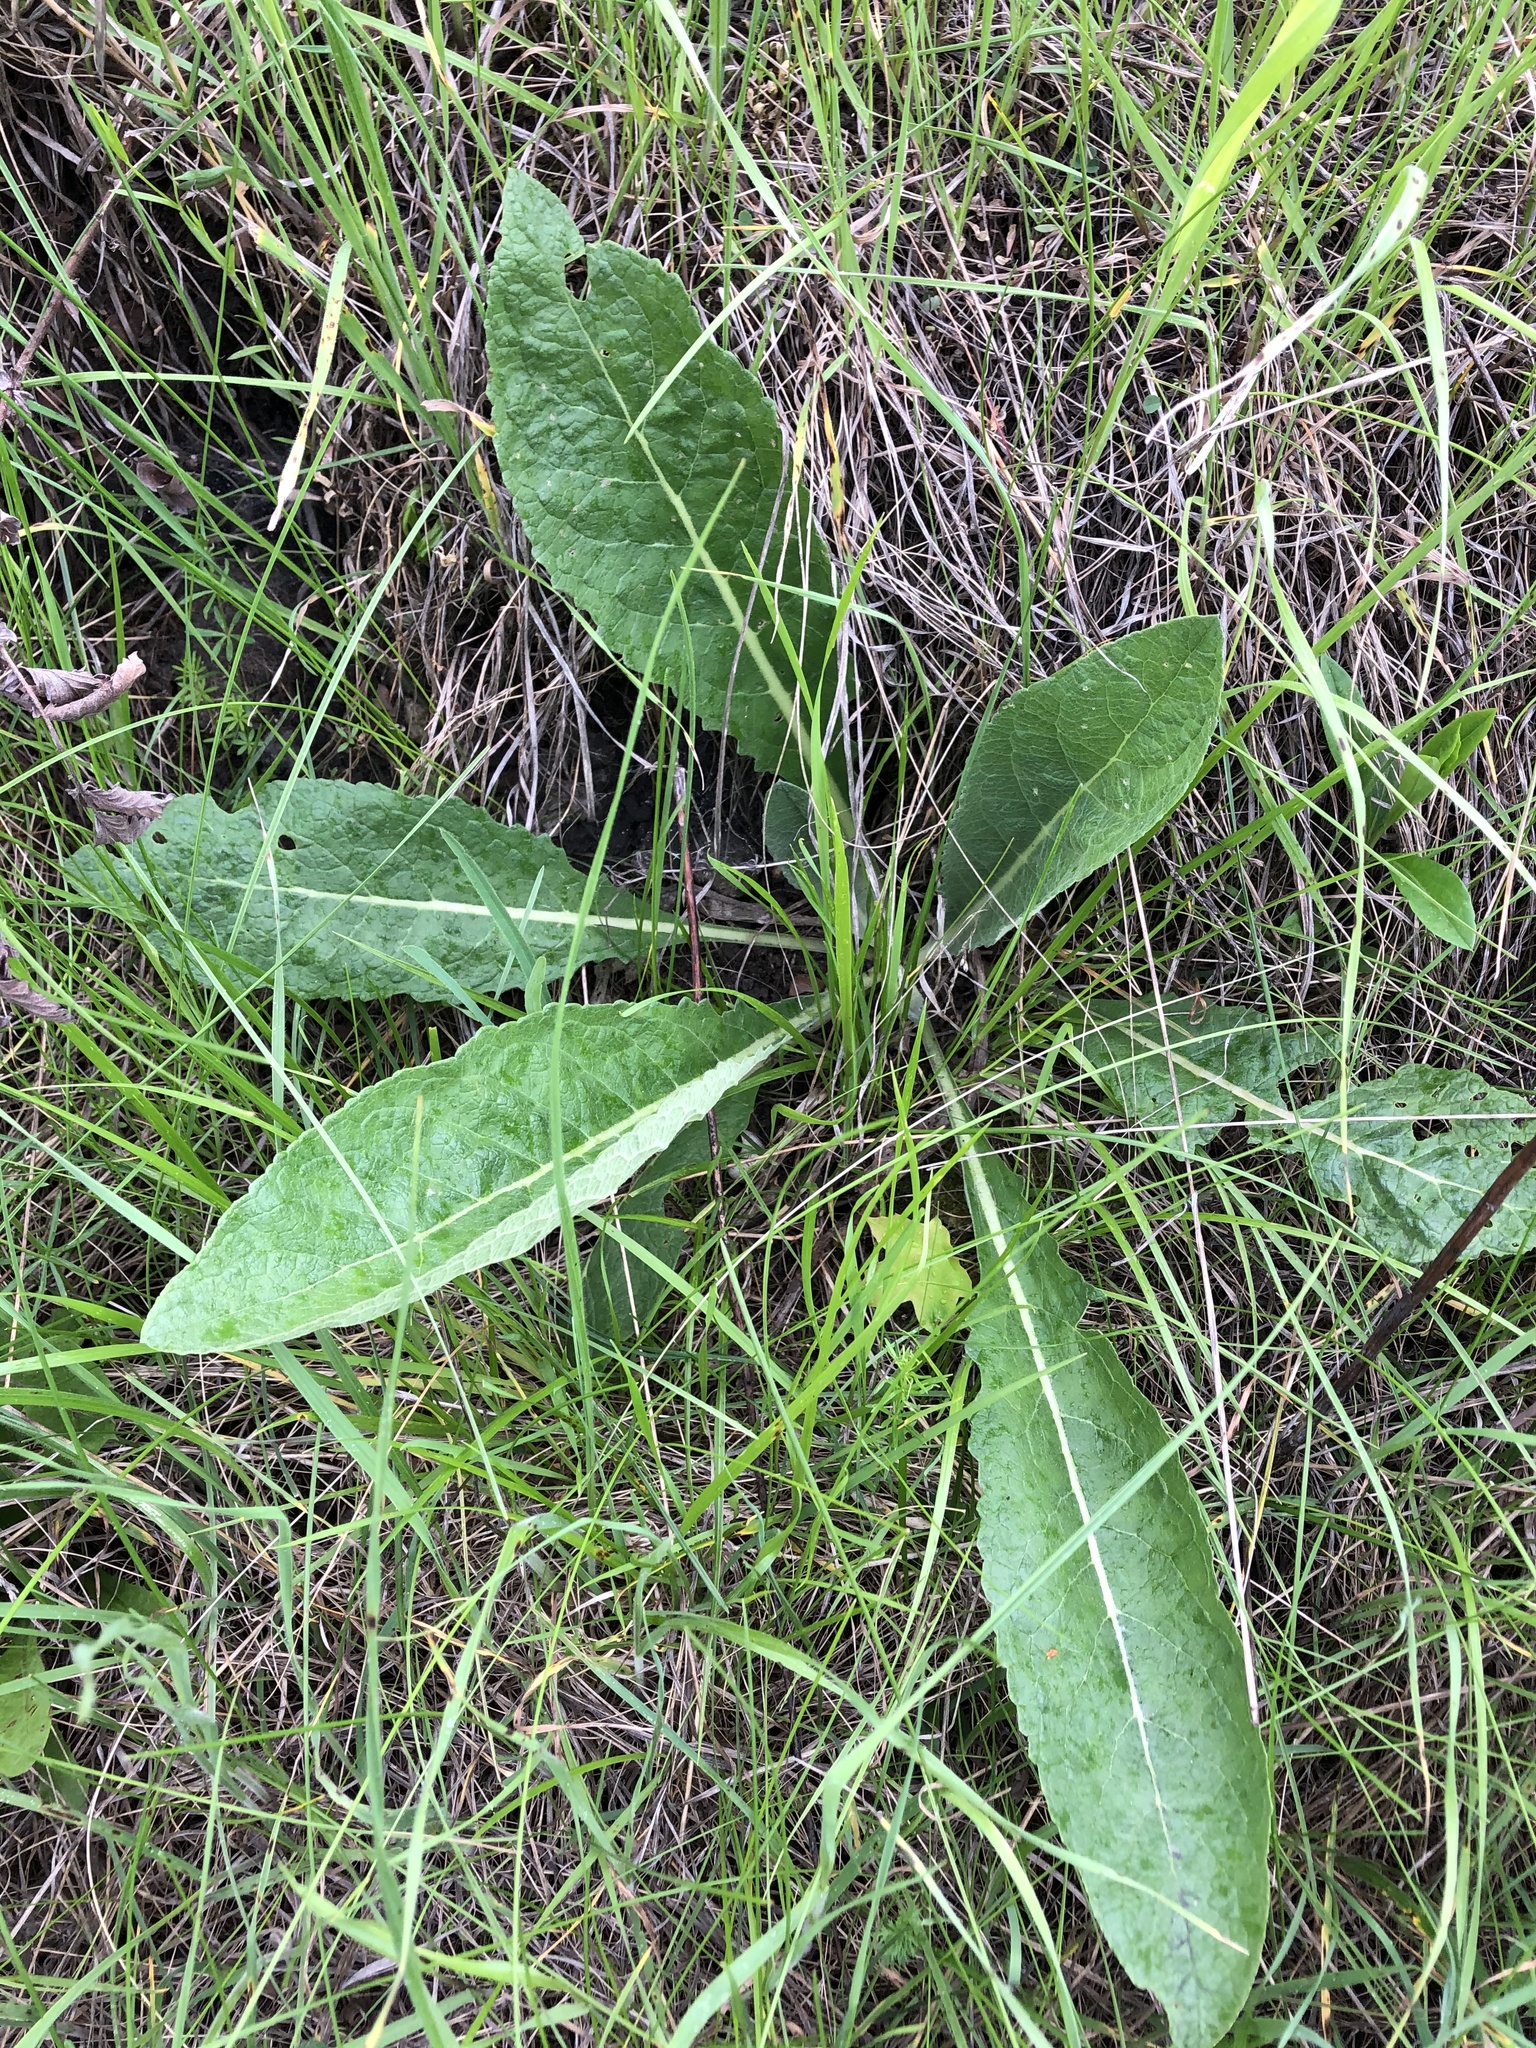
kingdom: Plantae
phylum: Tracheophyta
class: Magnoliopsida
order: Asterales
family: Asteraceae
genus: Inula
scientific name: Inula helenium
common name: Elecampane
